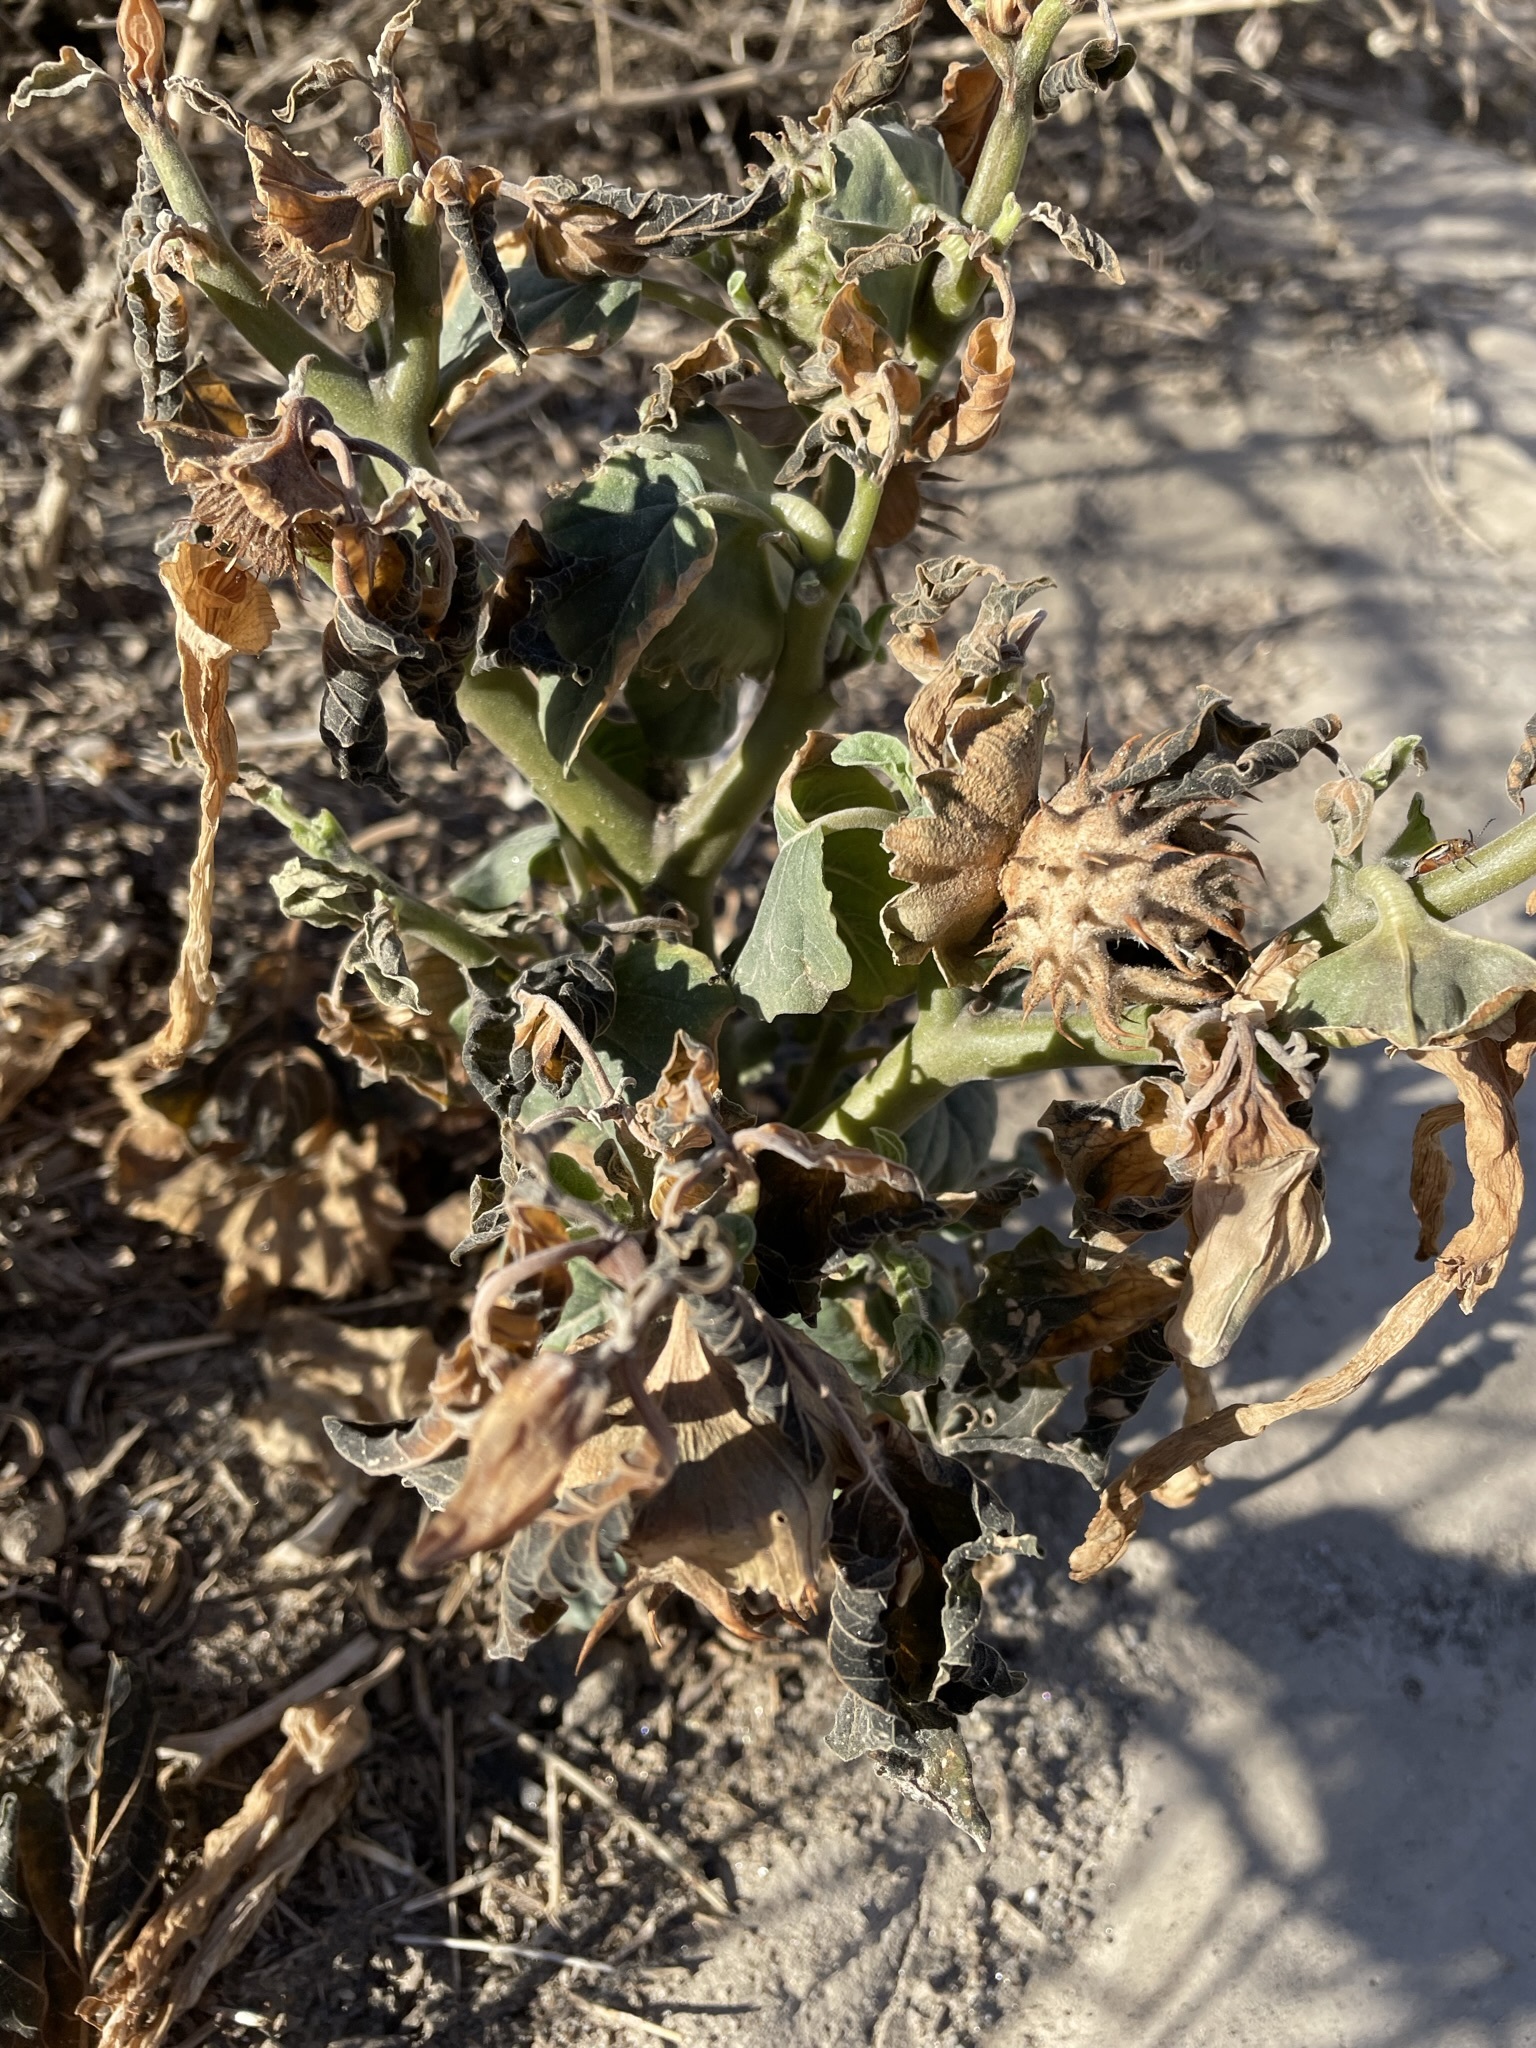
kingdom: Plantae
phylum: Tracheophyta
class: Magnoliopsida
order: Solanales
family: Solanaceae
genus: Datura
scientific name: Datura discolor
